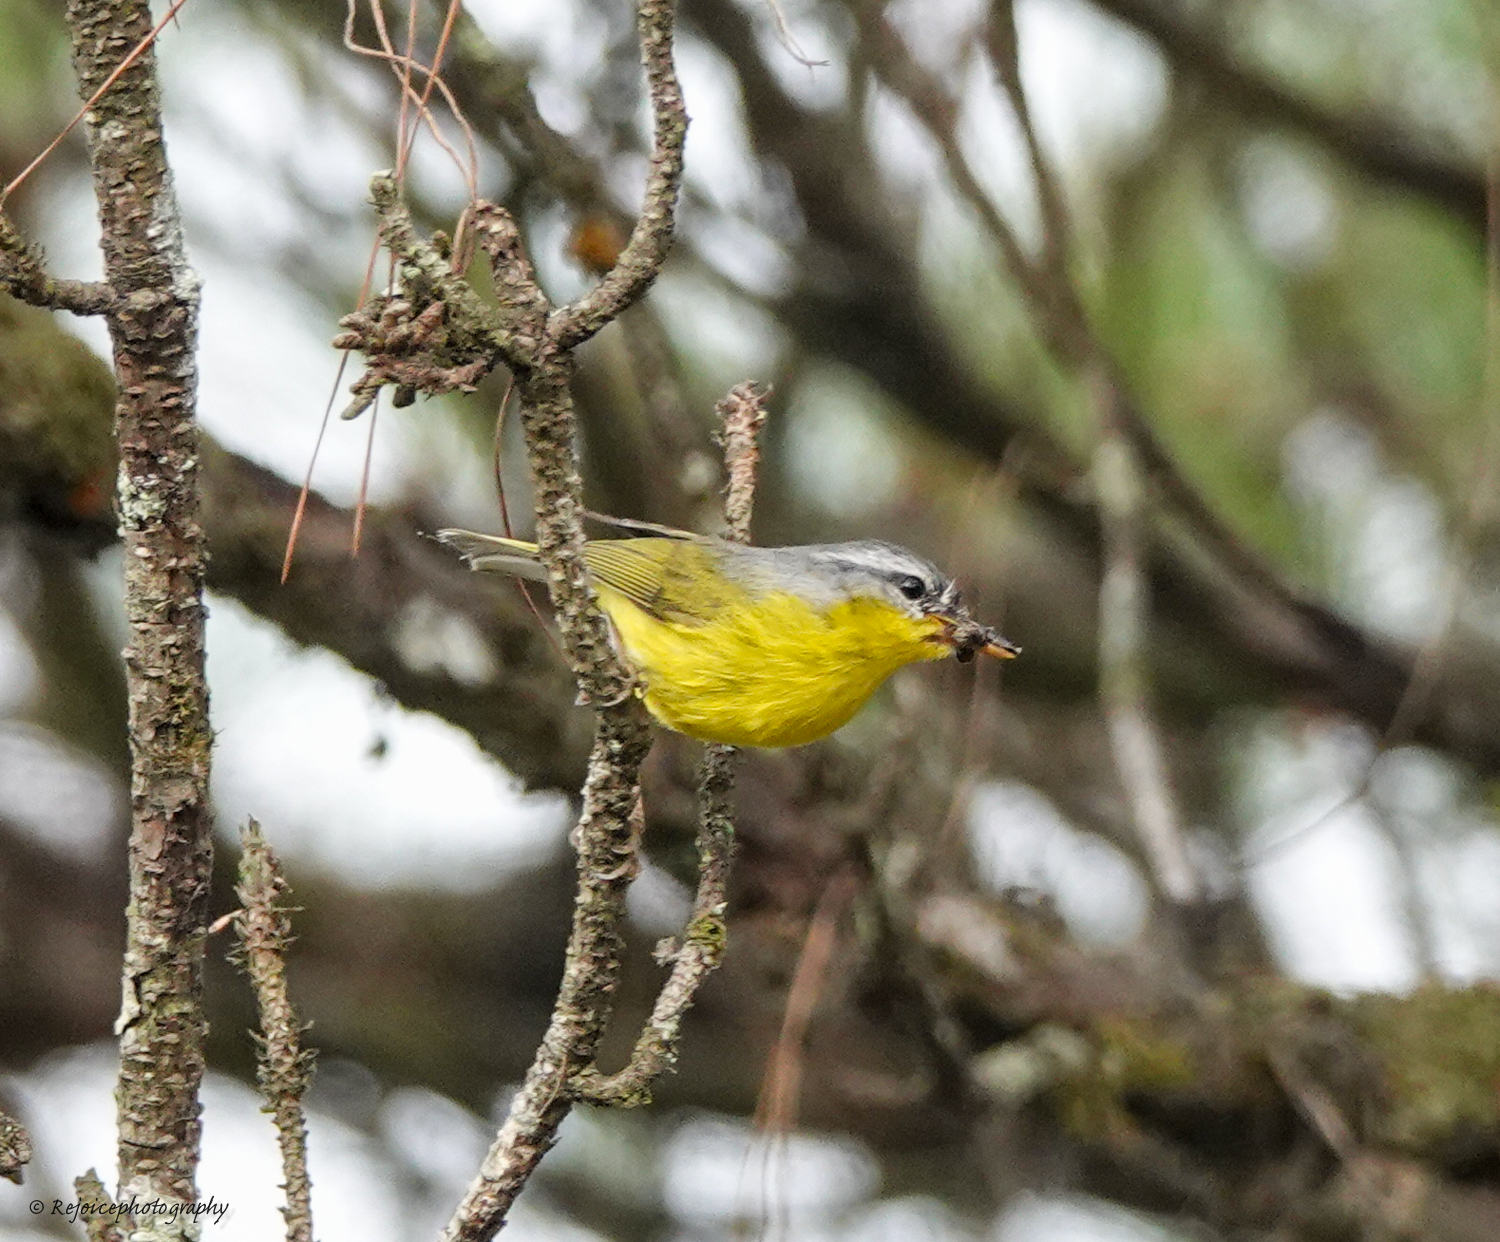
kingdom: Animalia
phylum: Chordata
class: Aves
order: Passeriformes
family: Phylloscopidae
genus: Phylloscopus
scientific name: Phylloscopus xanthoschistos
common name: Grey-hooded warbler
